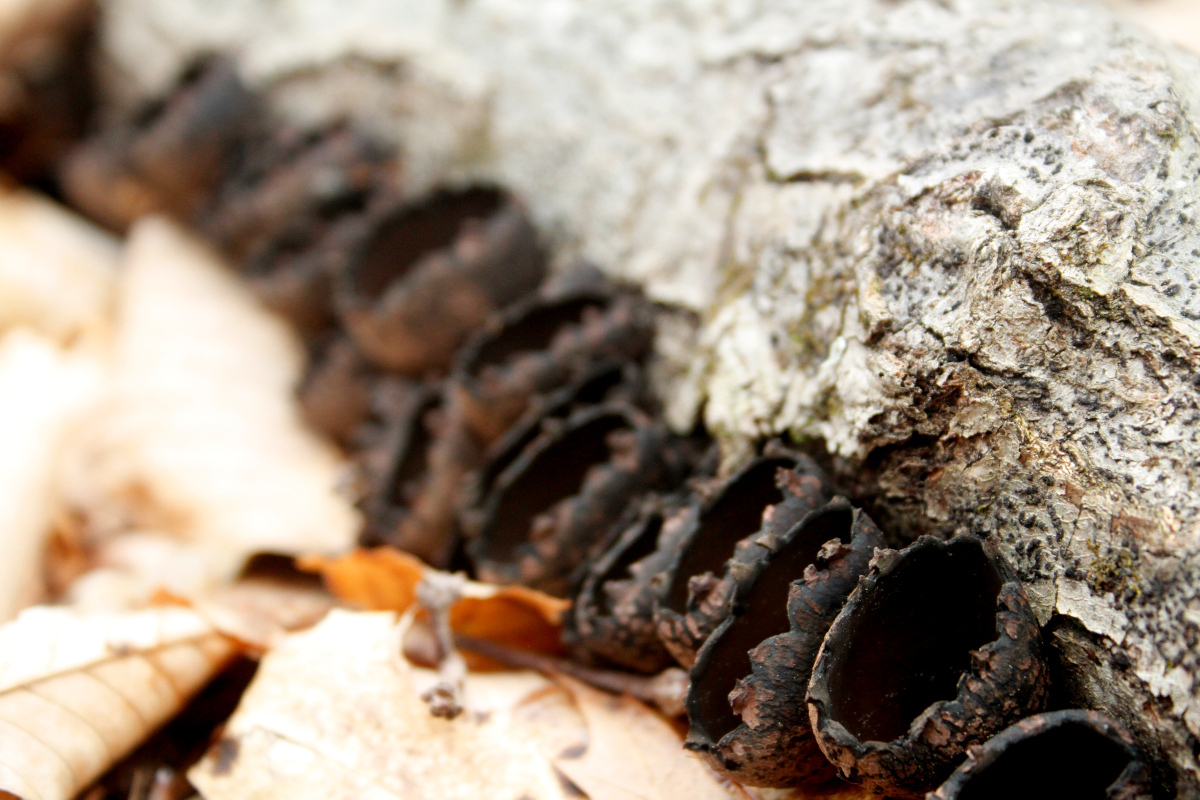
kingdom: Fungi
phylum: Ascomycota
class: Pezizomycetes
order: Pezizales
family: Sarcosomataceae
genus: Urnula
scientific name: Urnula craterium
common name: Devil's urn
